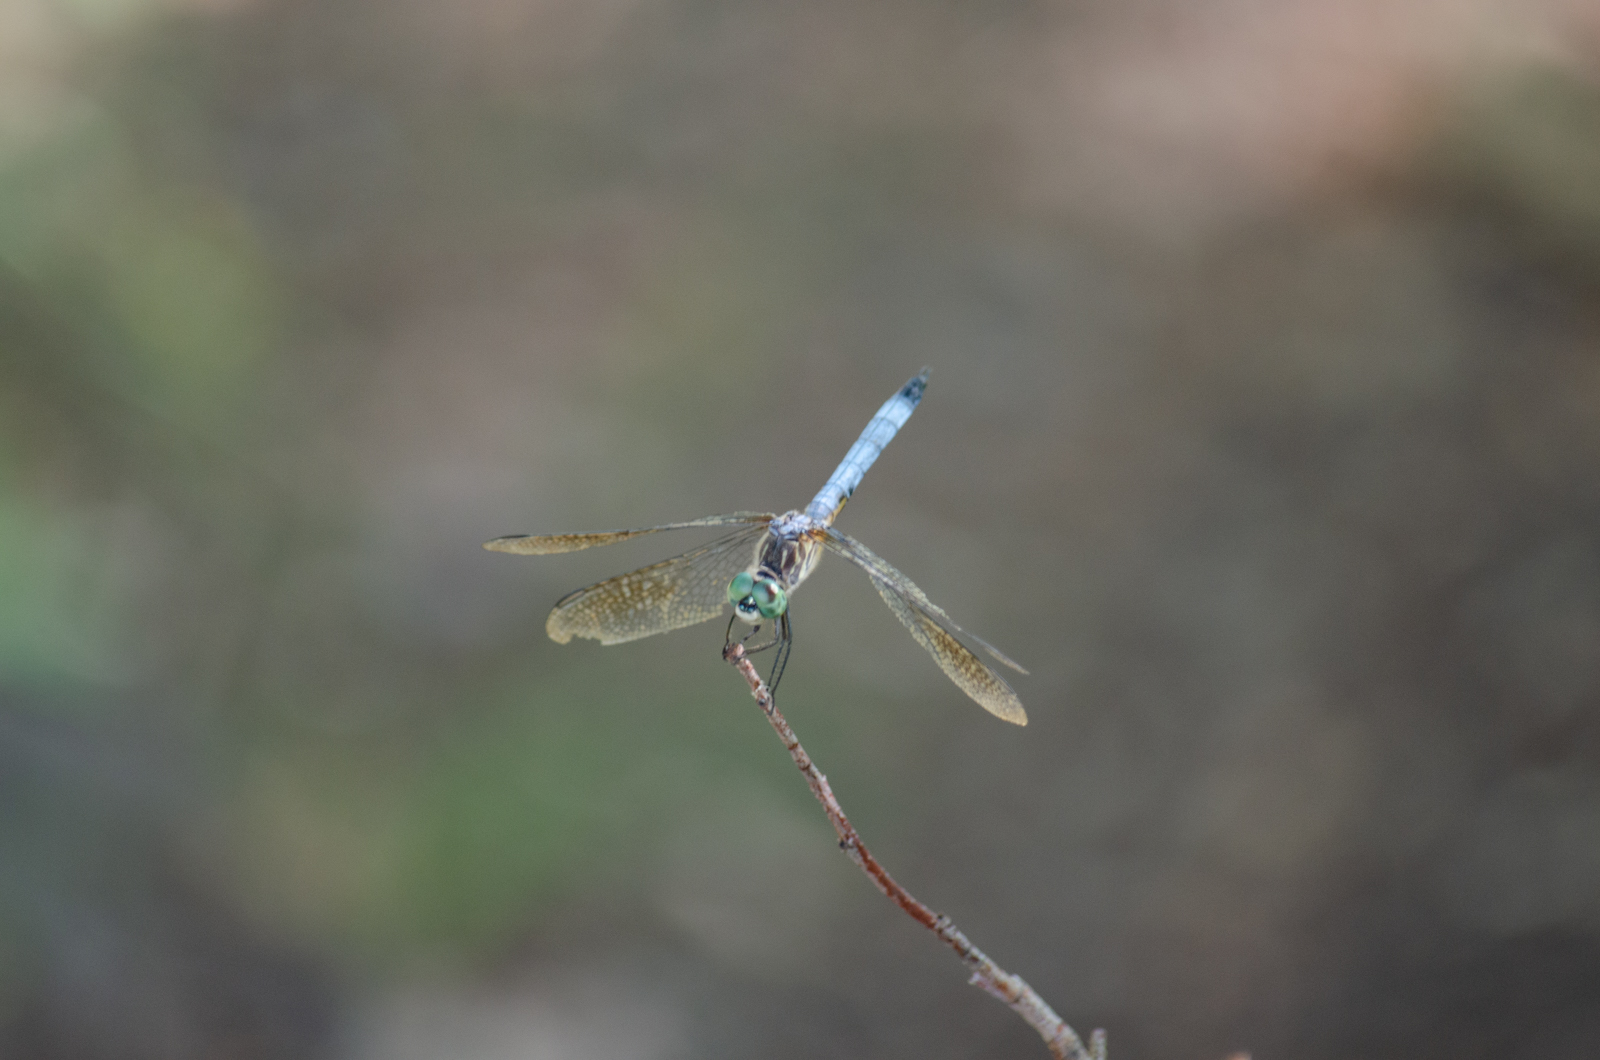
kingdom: Animalia
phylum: Arthropoda
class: Insecta
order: Odonata
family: Libellulidae
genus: Pachydiplax
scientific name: Pachydiplax longipennis
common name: Blue dasher
